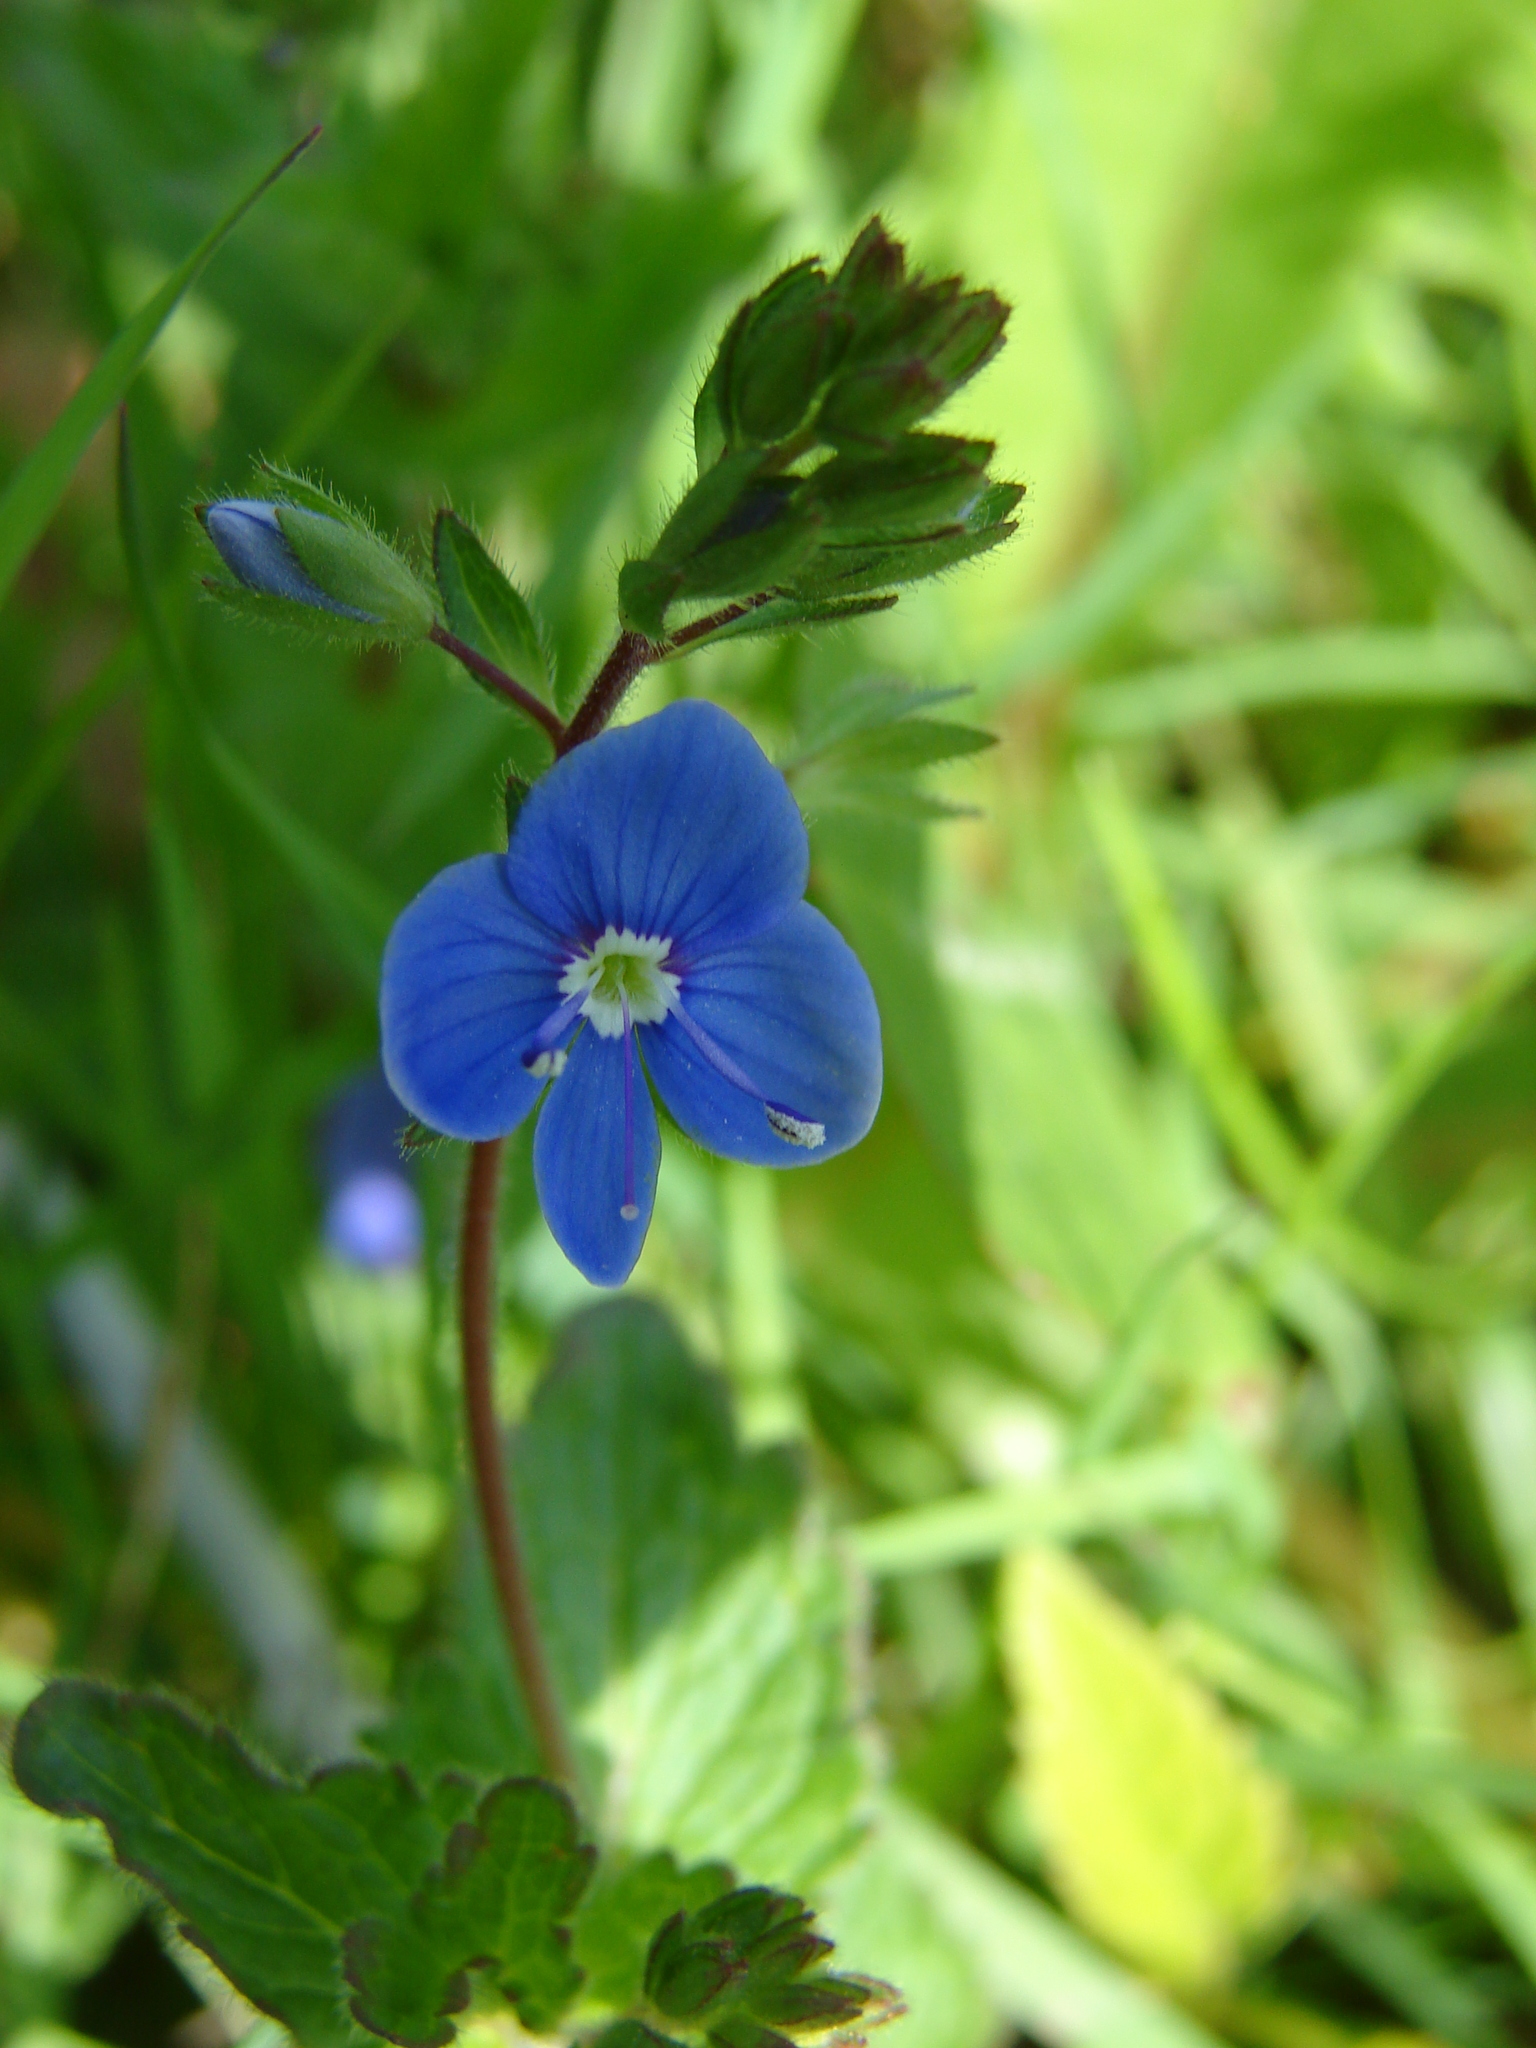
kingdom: Plantae
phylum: Tracheophyta
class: Magnoliopsida
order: Lamiales
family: Plantaginaceae
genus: Veronica
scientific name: Veronica chamaedrys
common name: Germander speedwell
